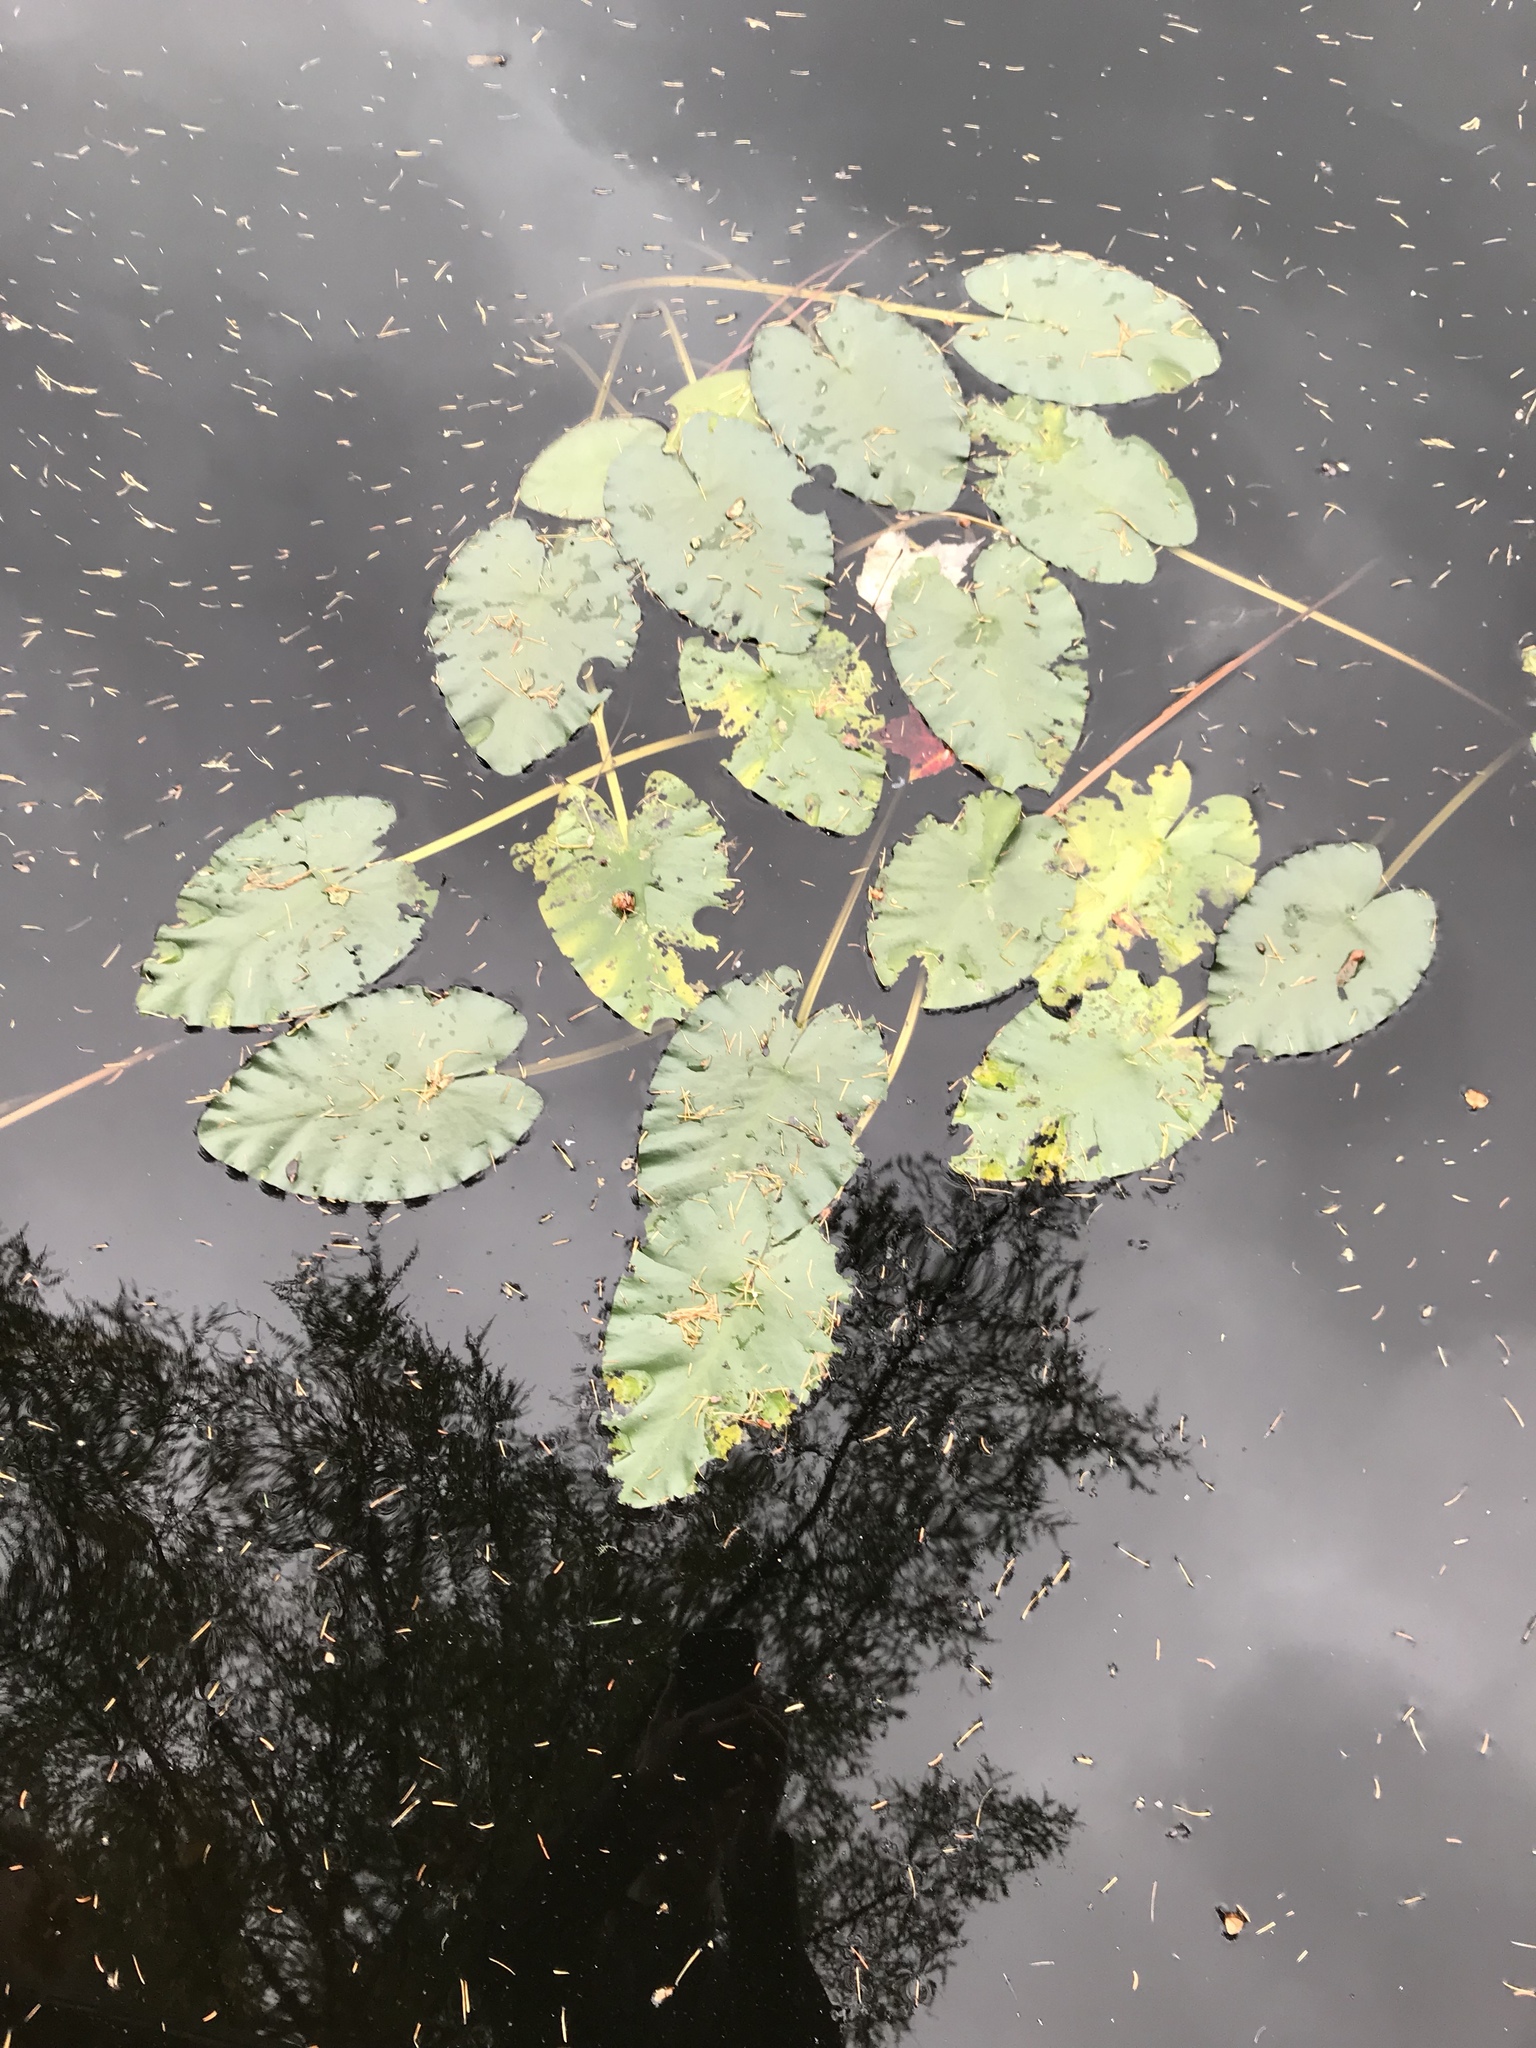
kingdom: Plantae
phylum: Tracheophyta
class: Magnoliopsida
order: Nymphaeales
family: Nymphaeaceae
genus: Nuphar
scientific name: Nuphar variegata
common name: Beaver-root
